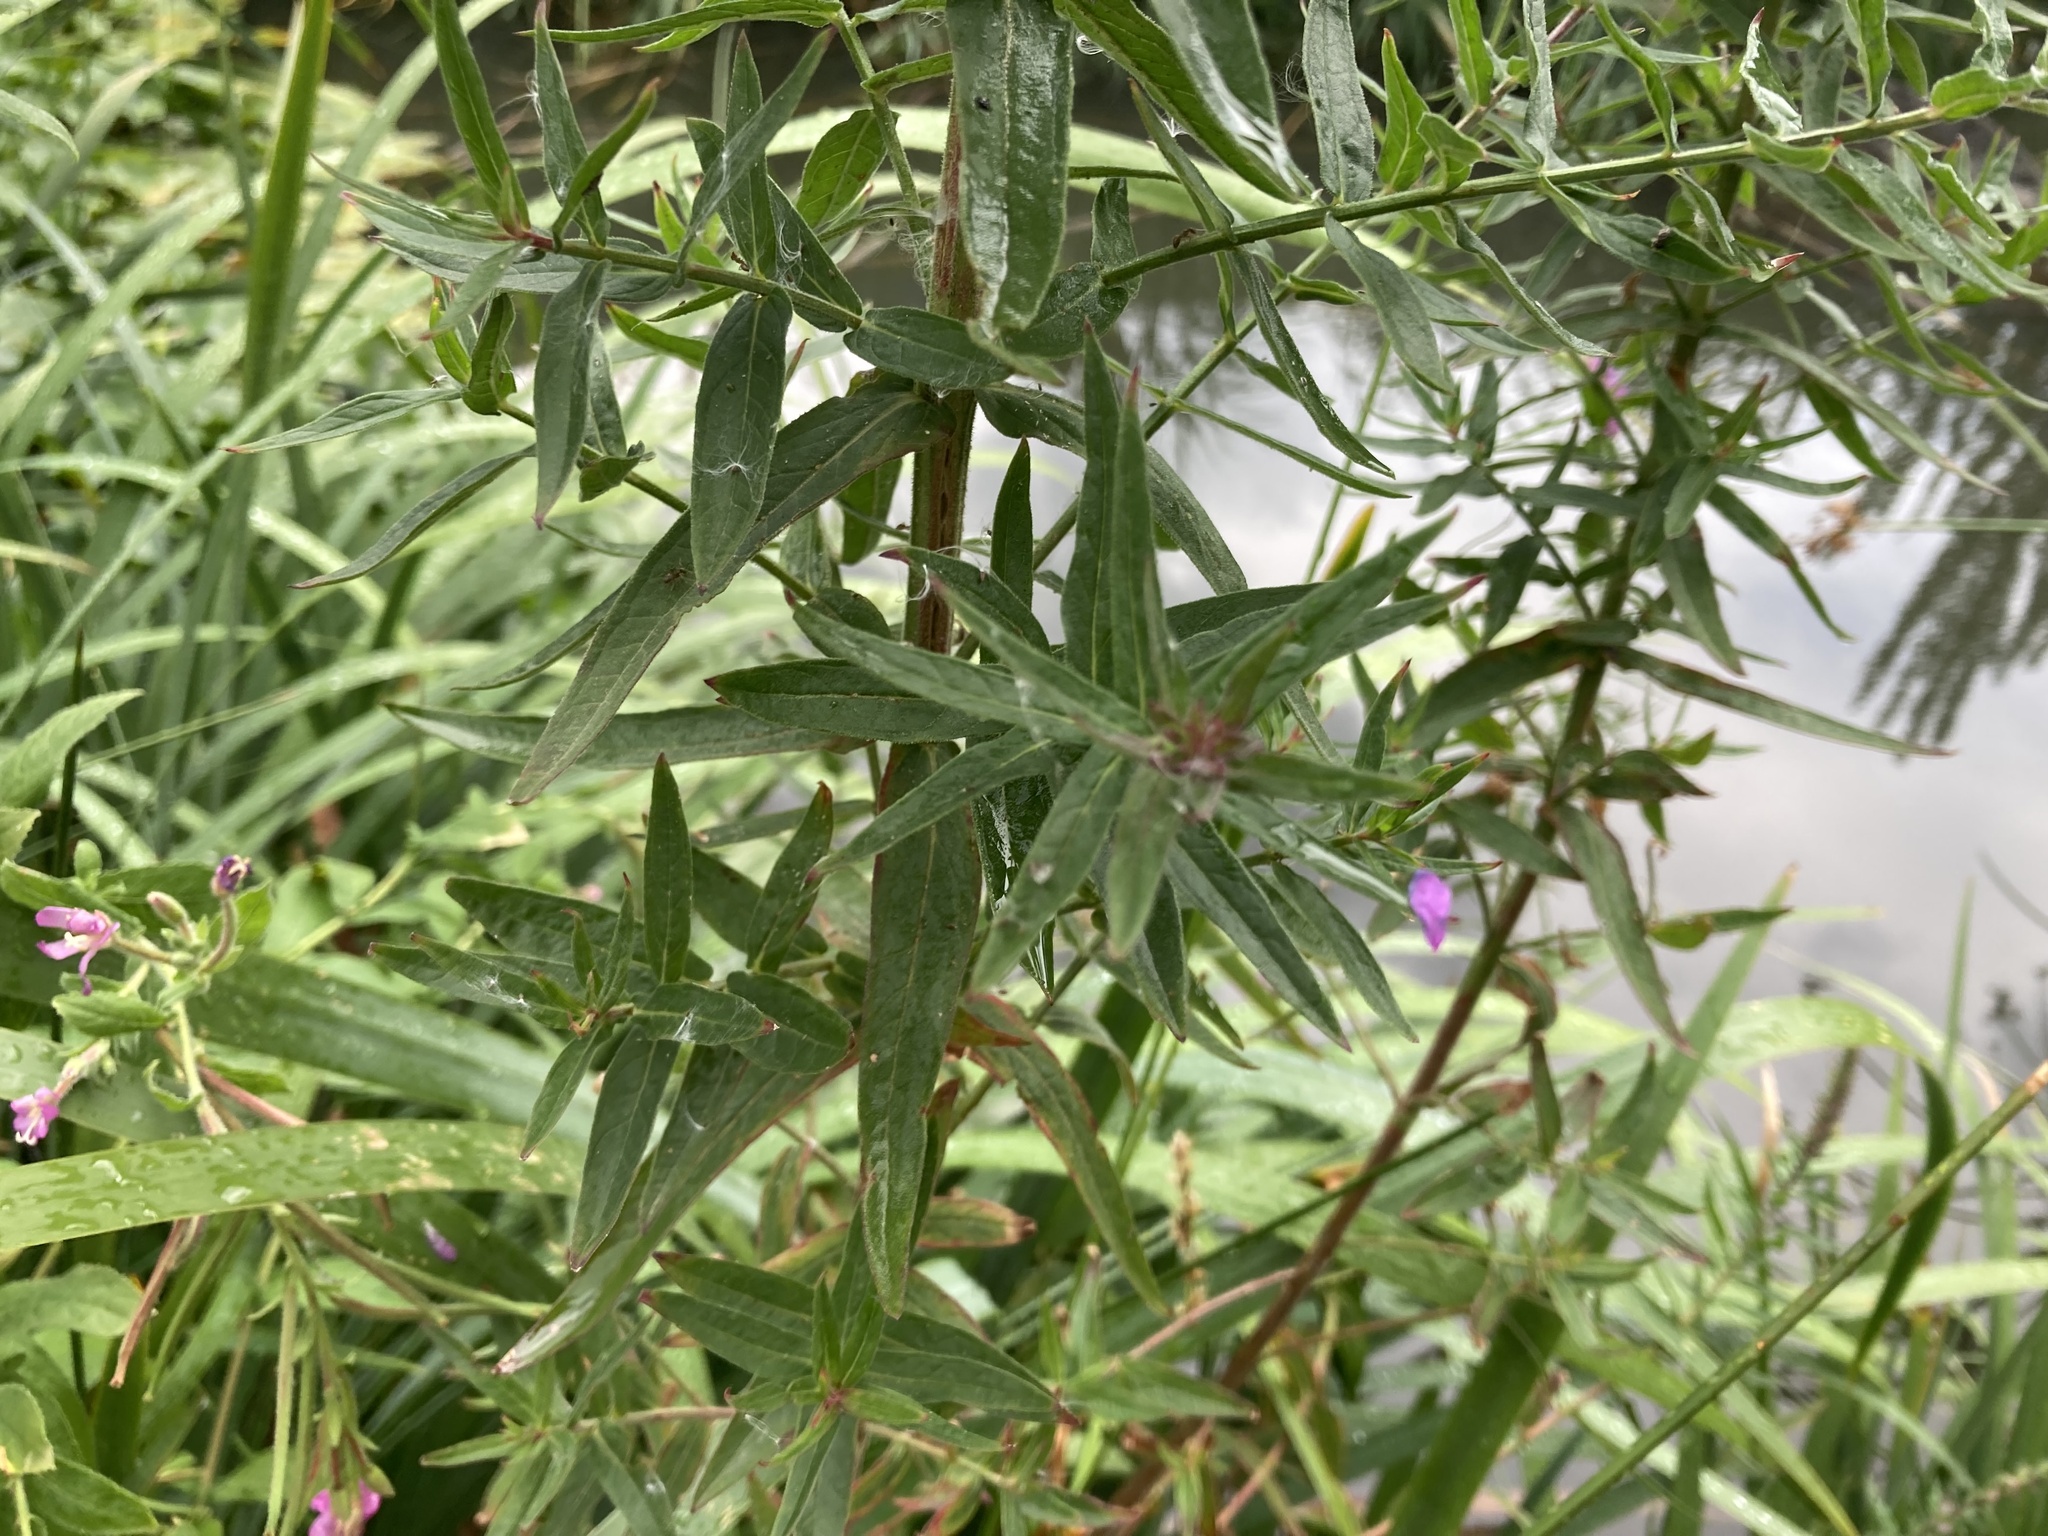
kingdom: Plantae
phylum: Tracheophyta
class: Magnoliopsida
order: Myrtales
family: Lythraceae
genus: Lythrum
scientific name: Lythrum salicaria
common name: Purple loosestrife
